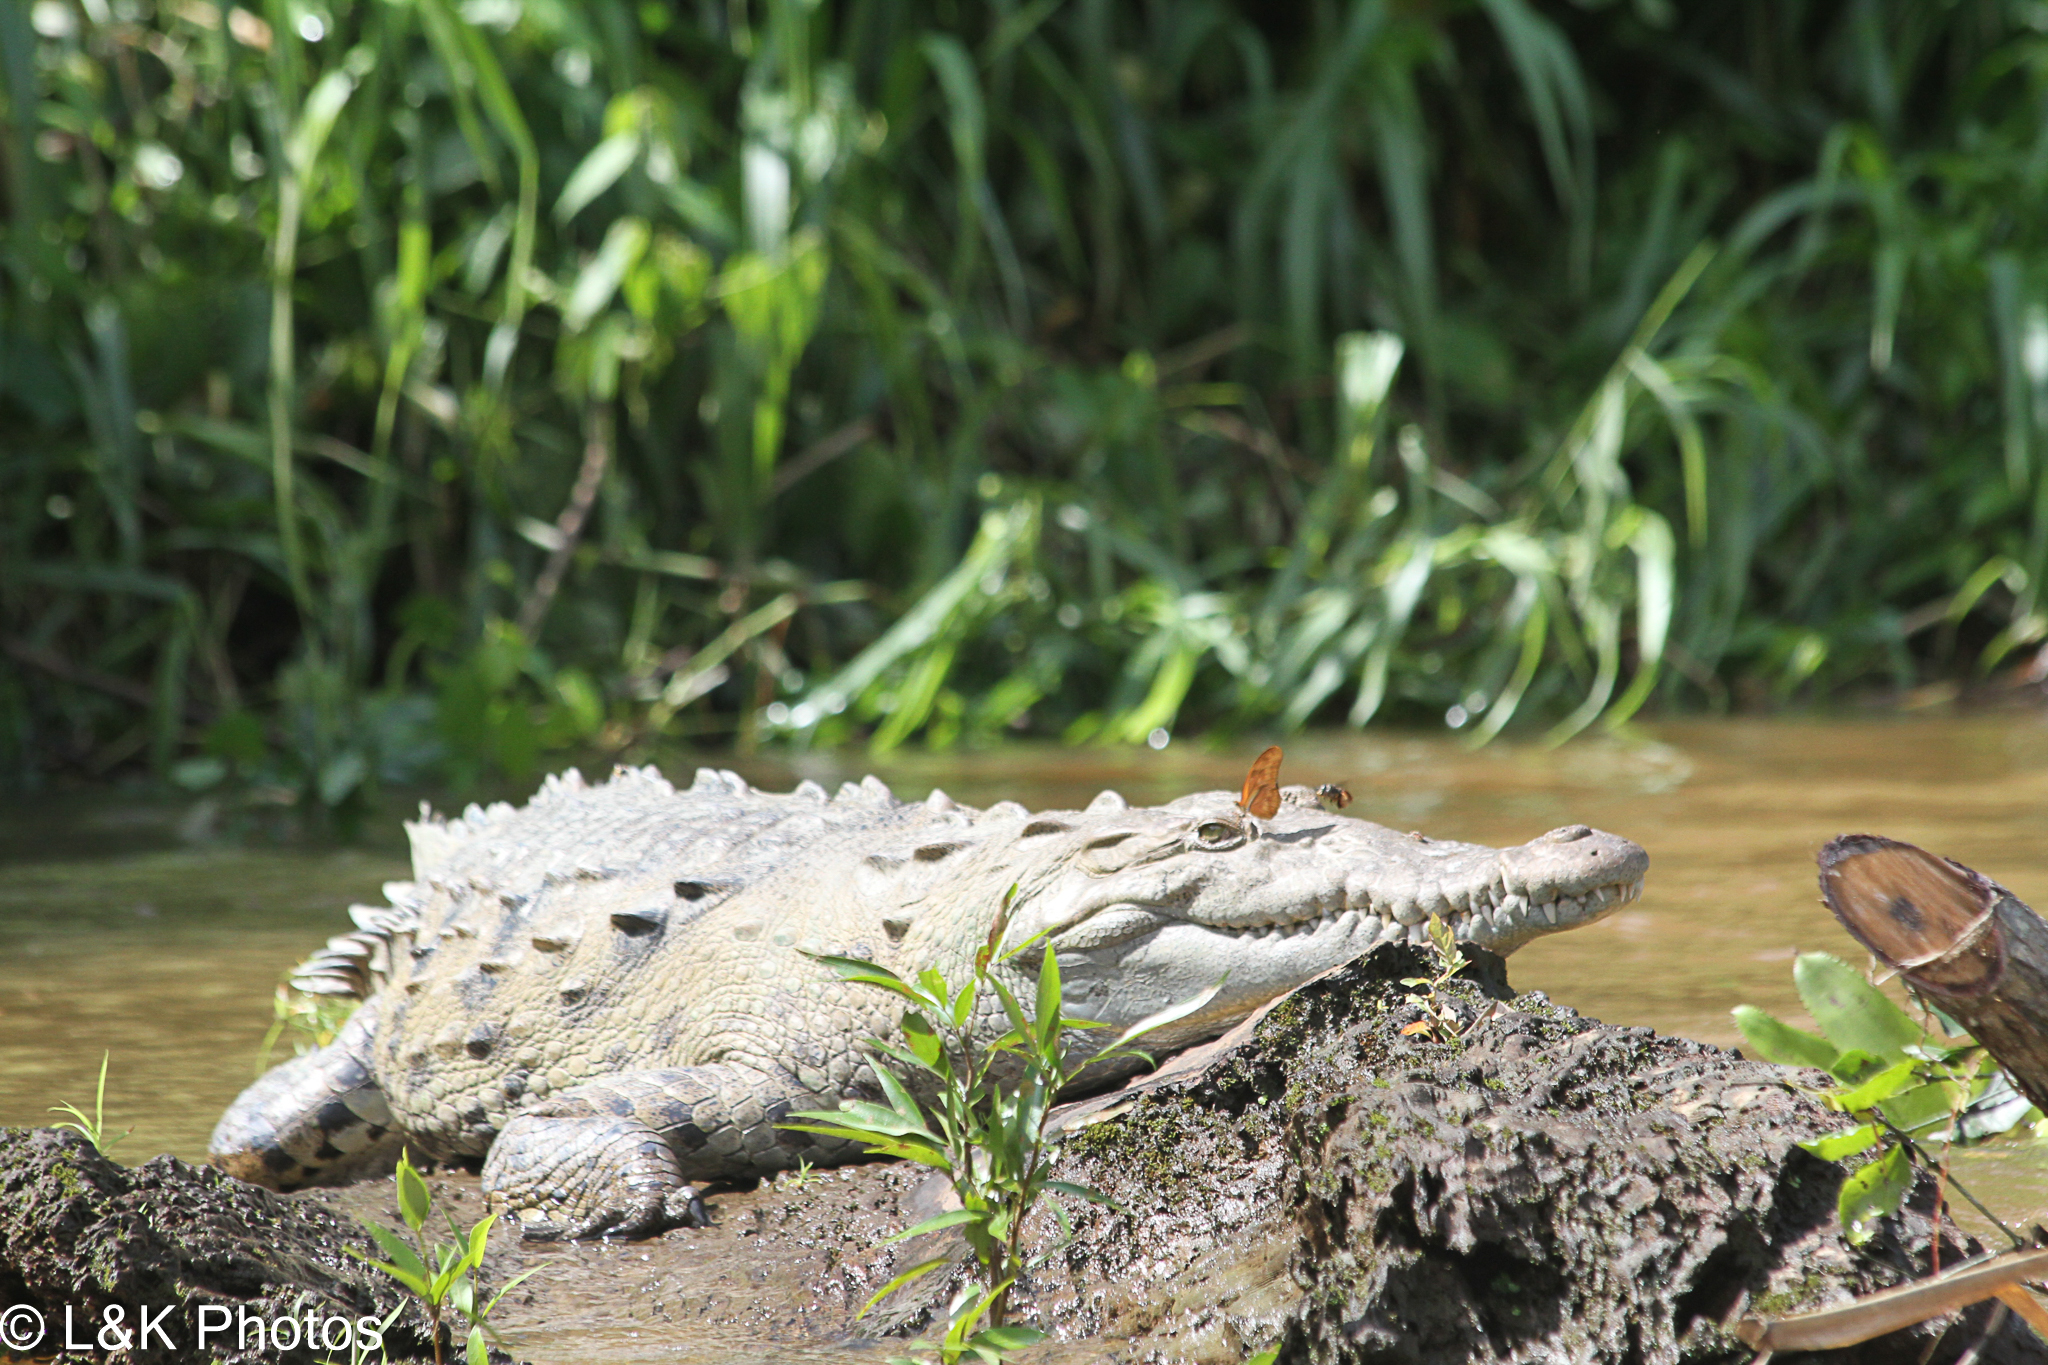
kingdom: Animalia
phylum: Arthropoda
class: Insecta
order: Lepidoptera
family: Nymphalidae
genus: Dryas
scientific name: Dryas iulia
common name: Flambeau
